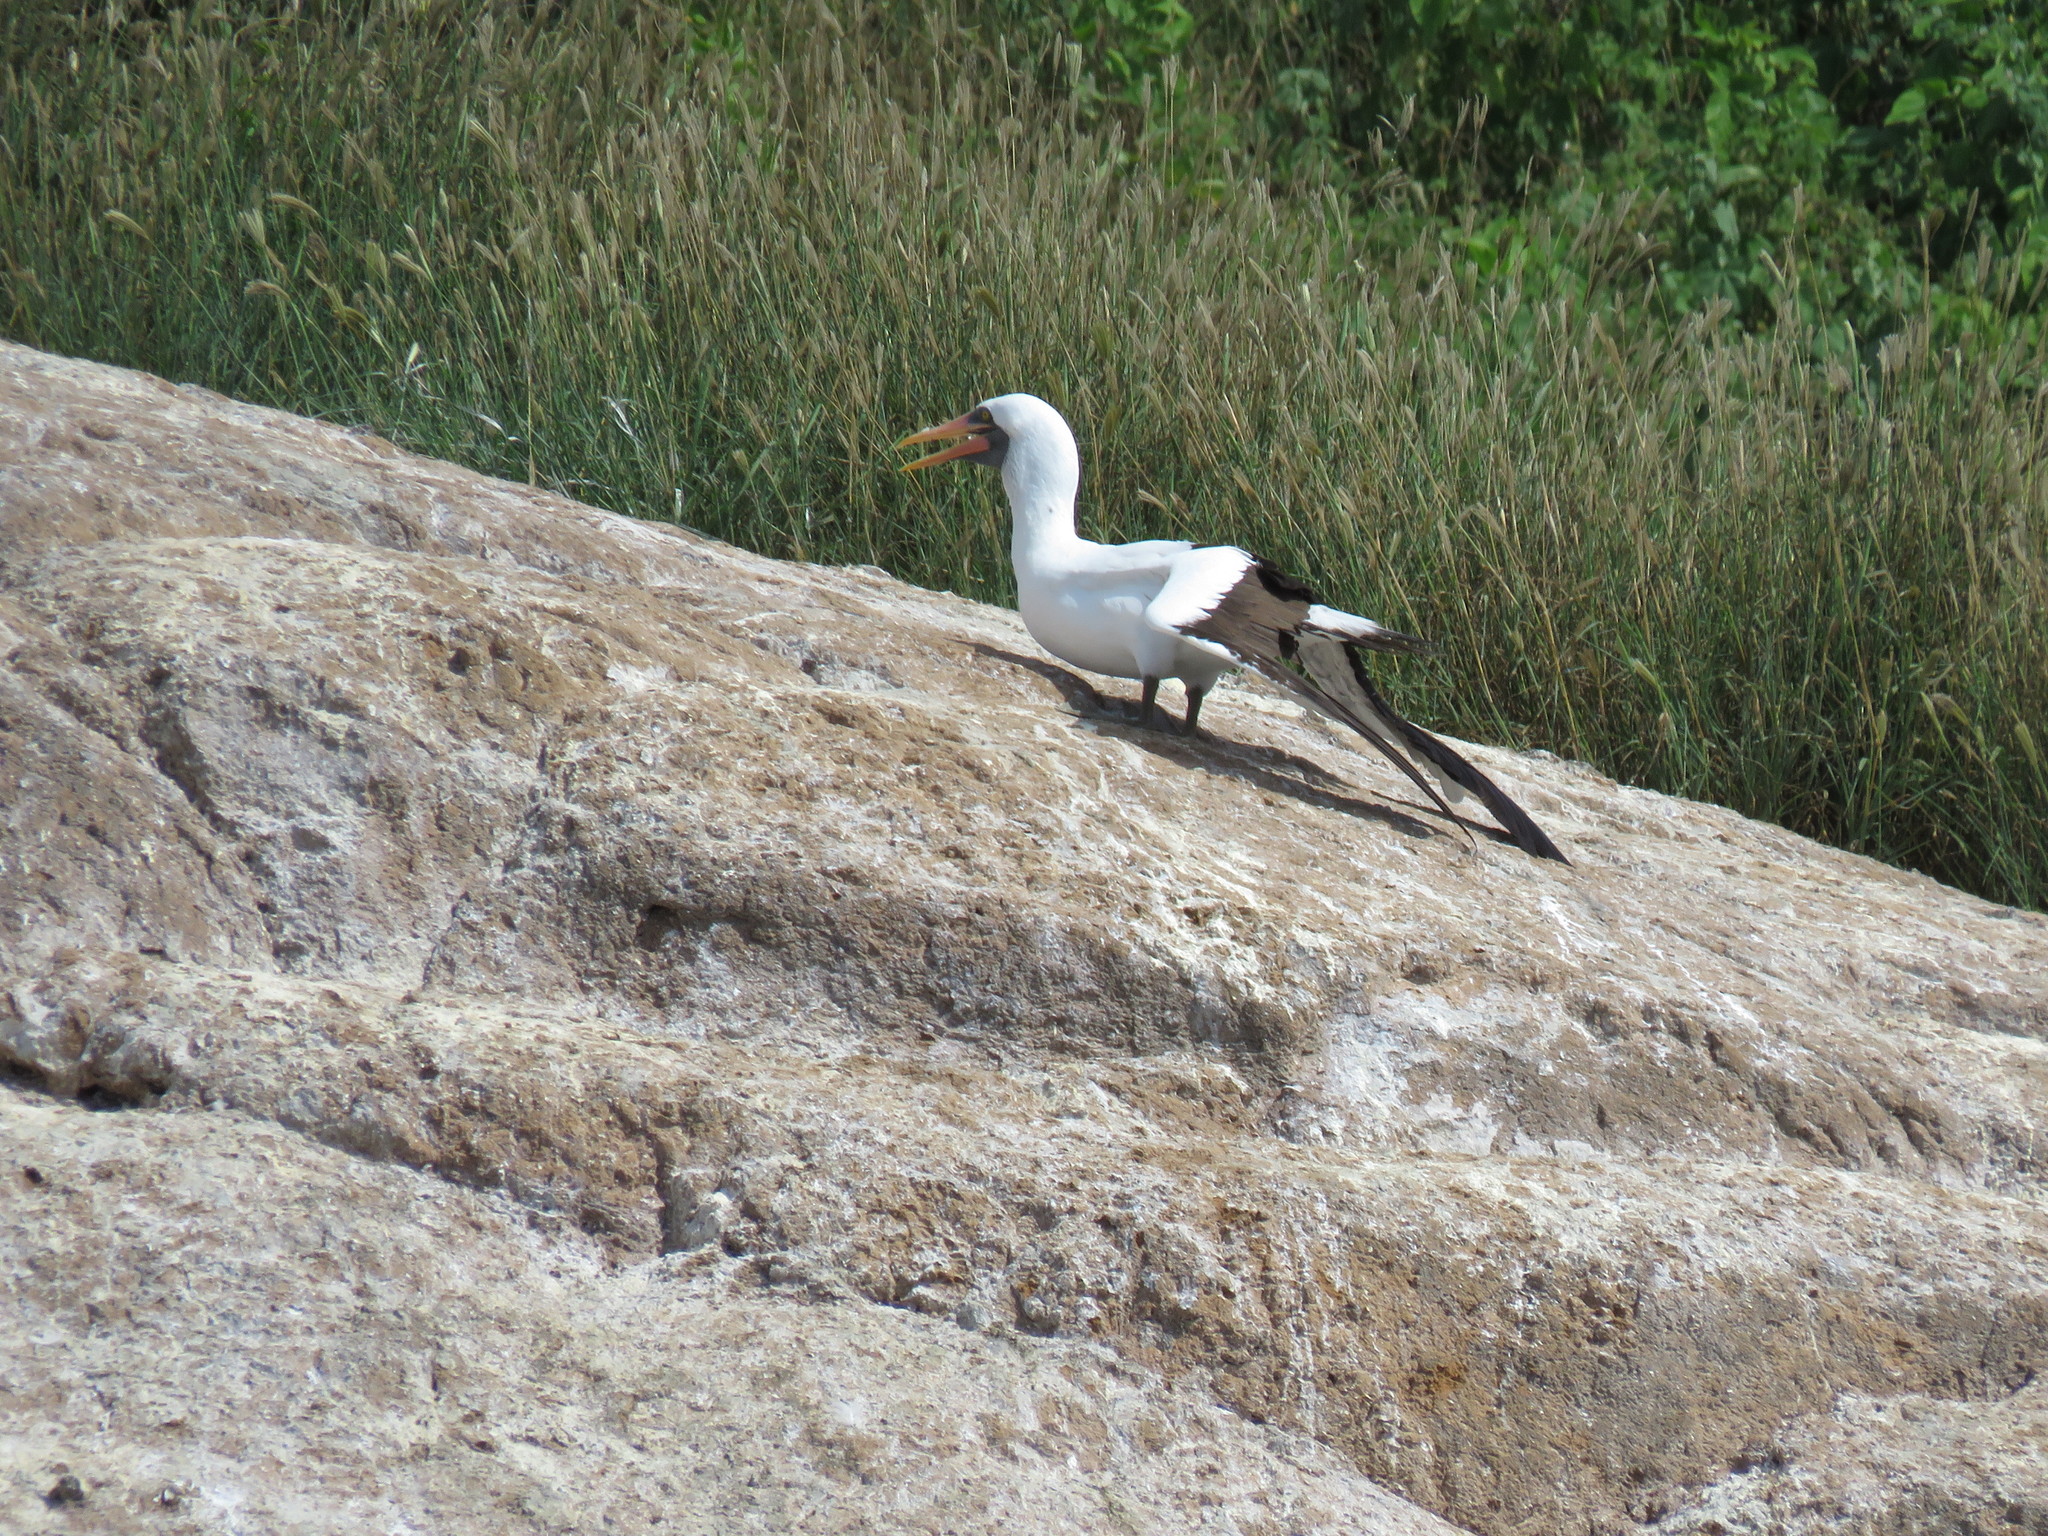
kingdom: Animalia
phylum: Chordata
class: Aves
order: Suliformes
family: Sulidae
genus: Sula
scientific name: Sula granti
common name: Nazca booby
